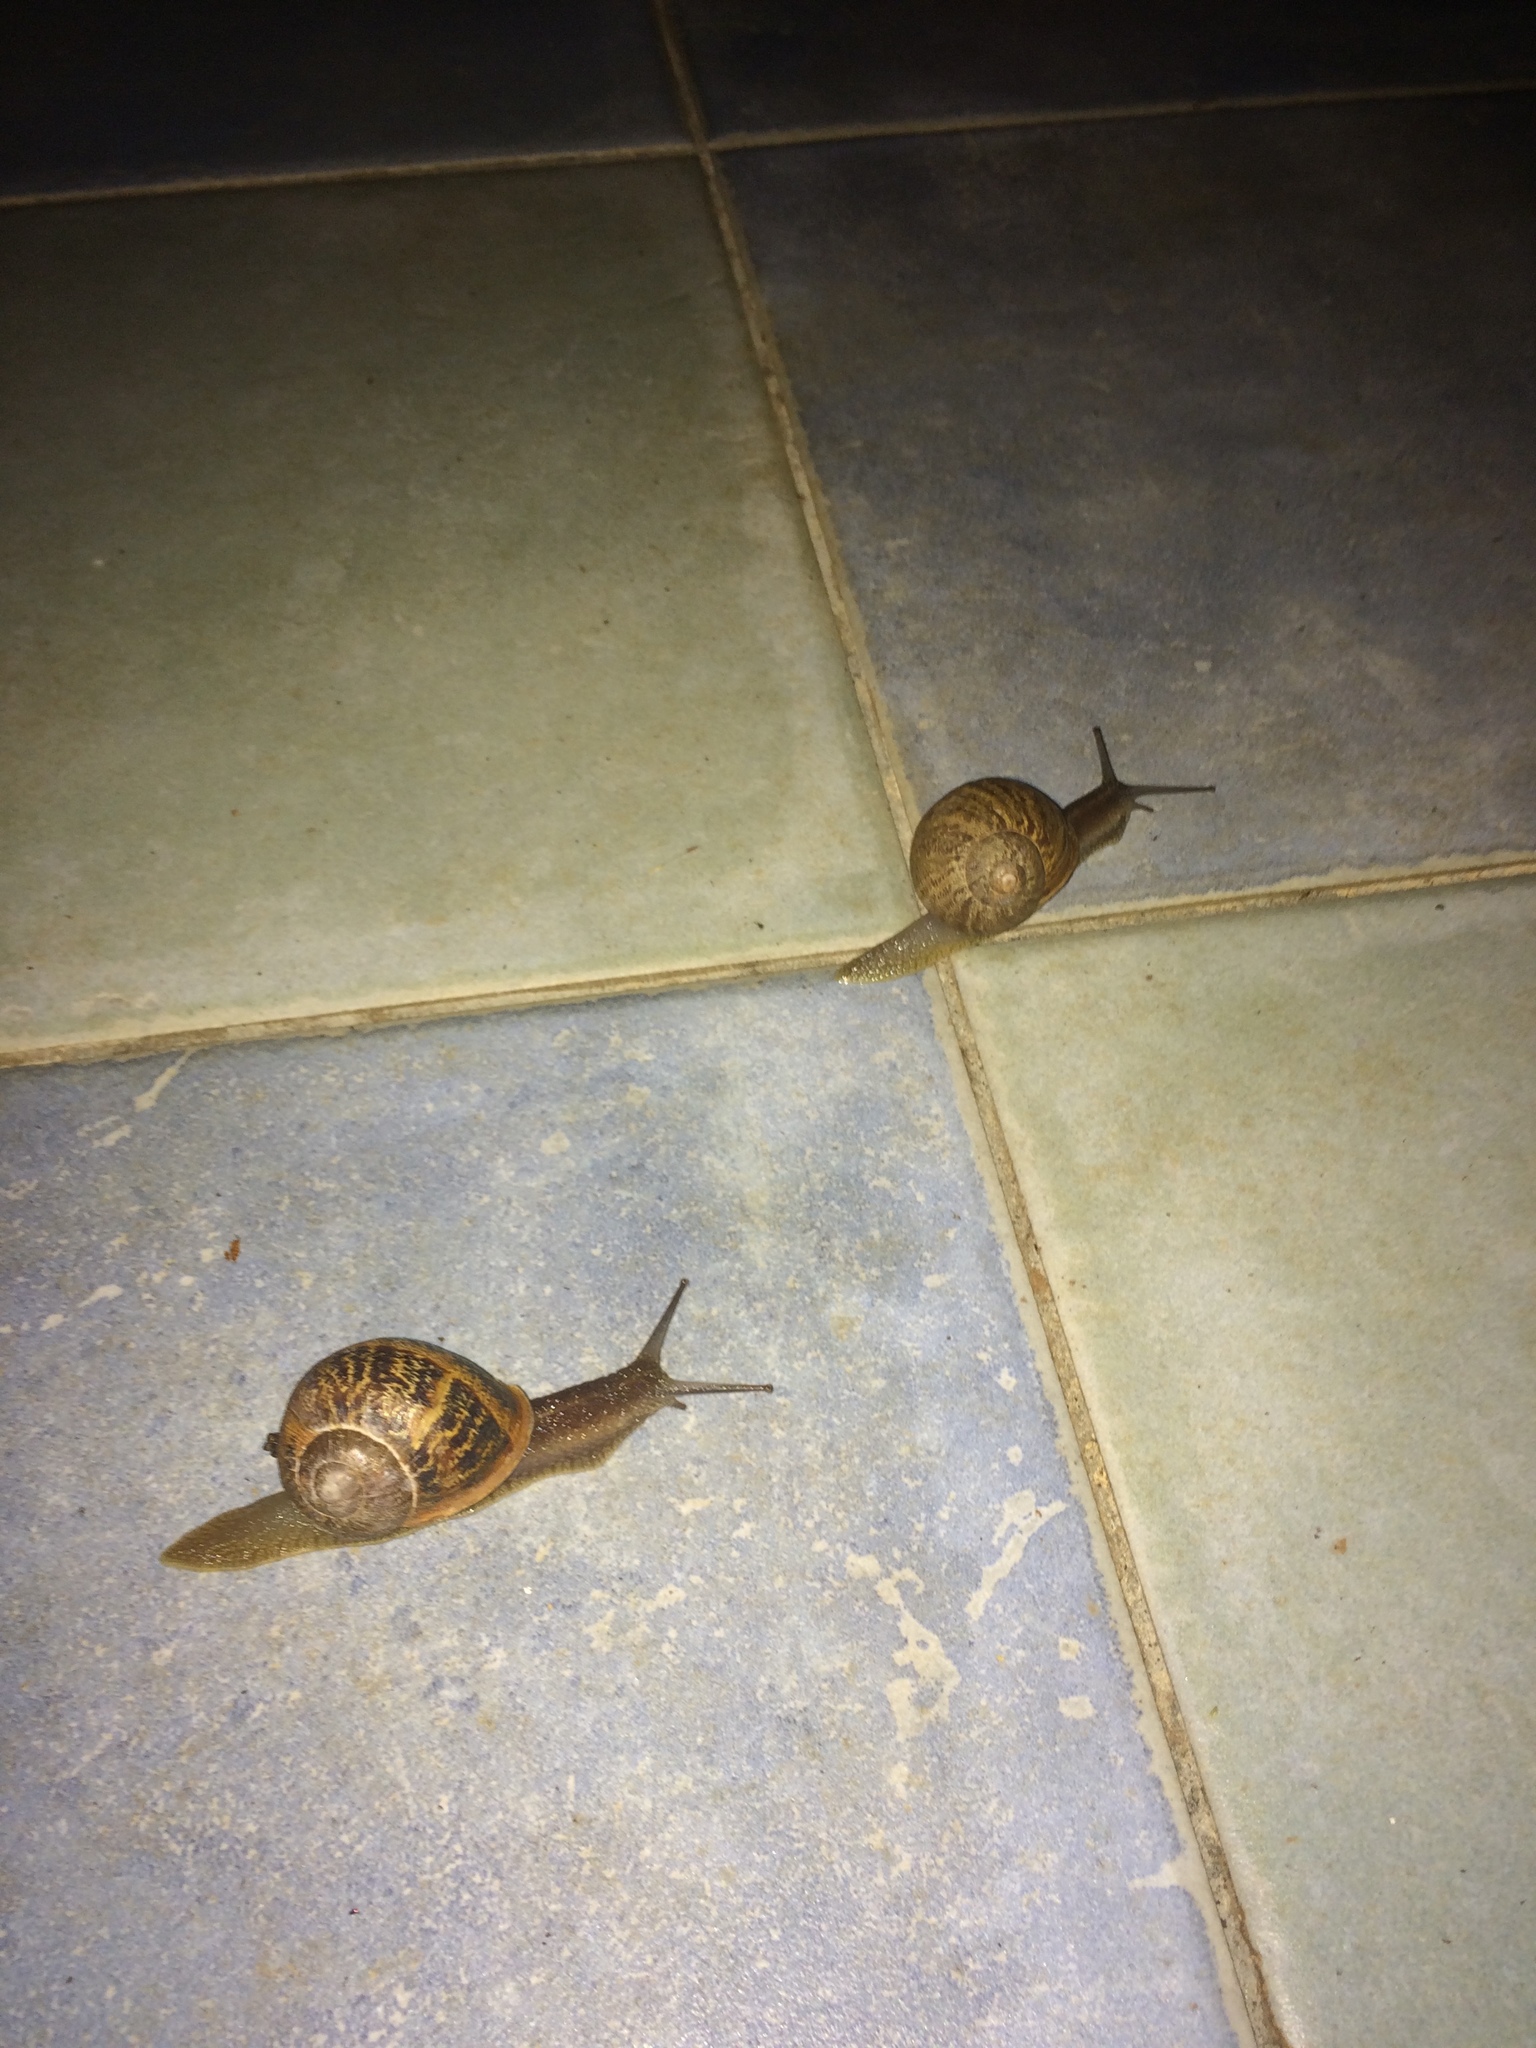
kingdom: Animalia
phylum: Mollusca
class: Gastropoda
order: Stylommatophora
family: Helicidae
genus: Cornu
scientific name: Cornu aspersum
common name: Brown garden snail
